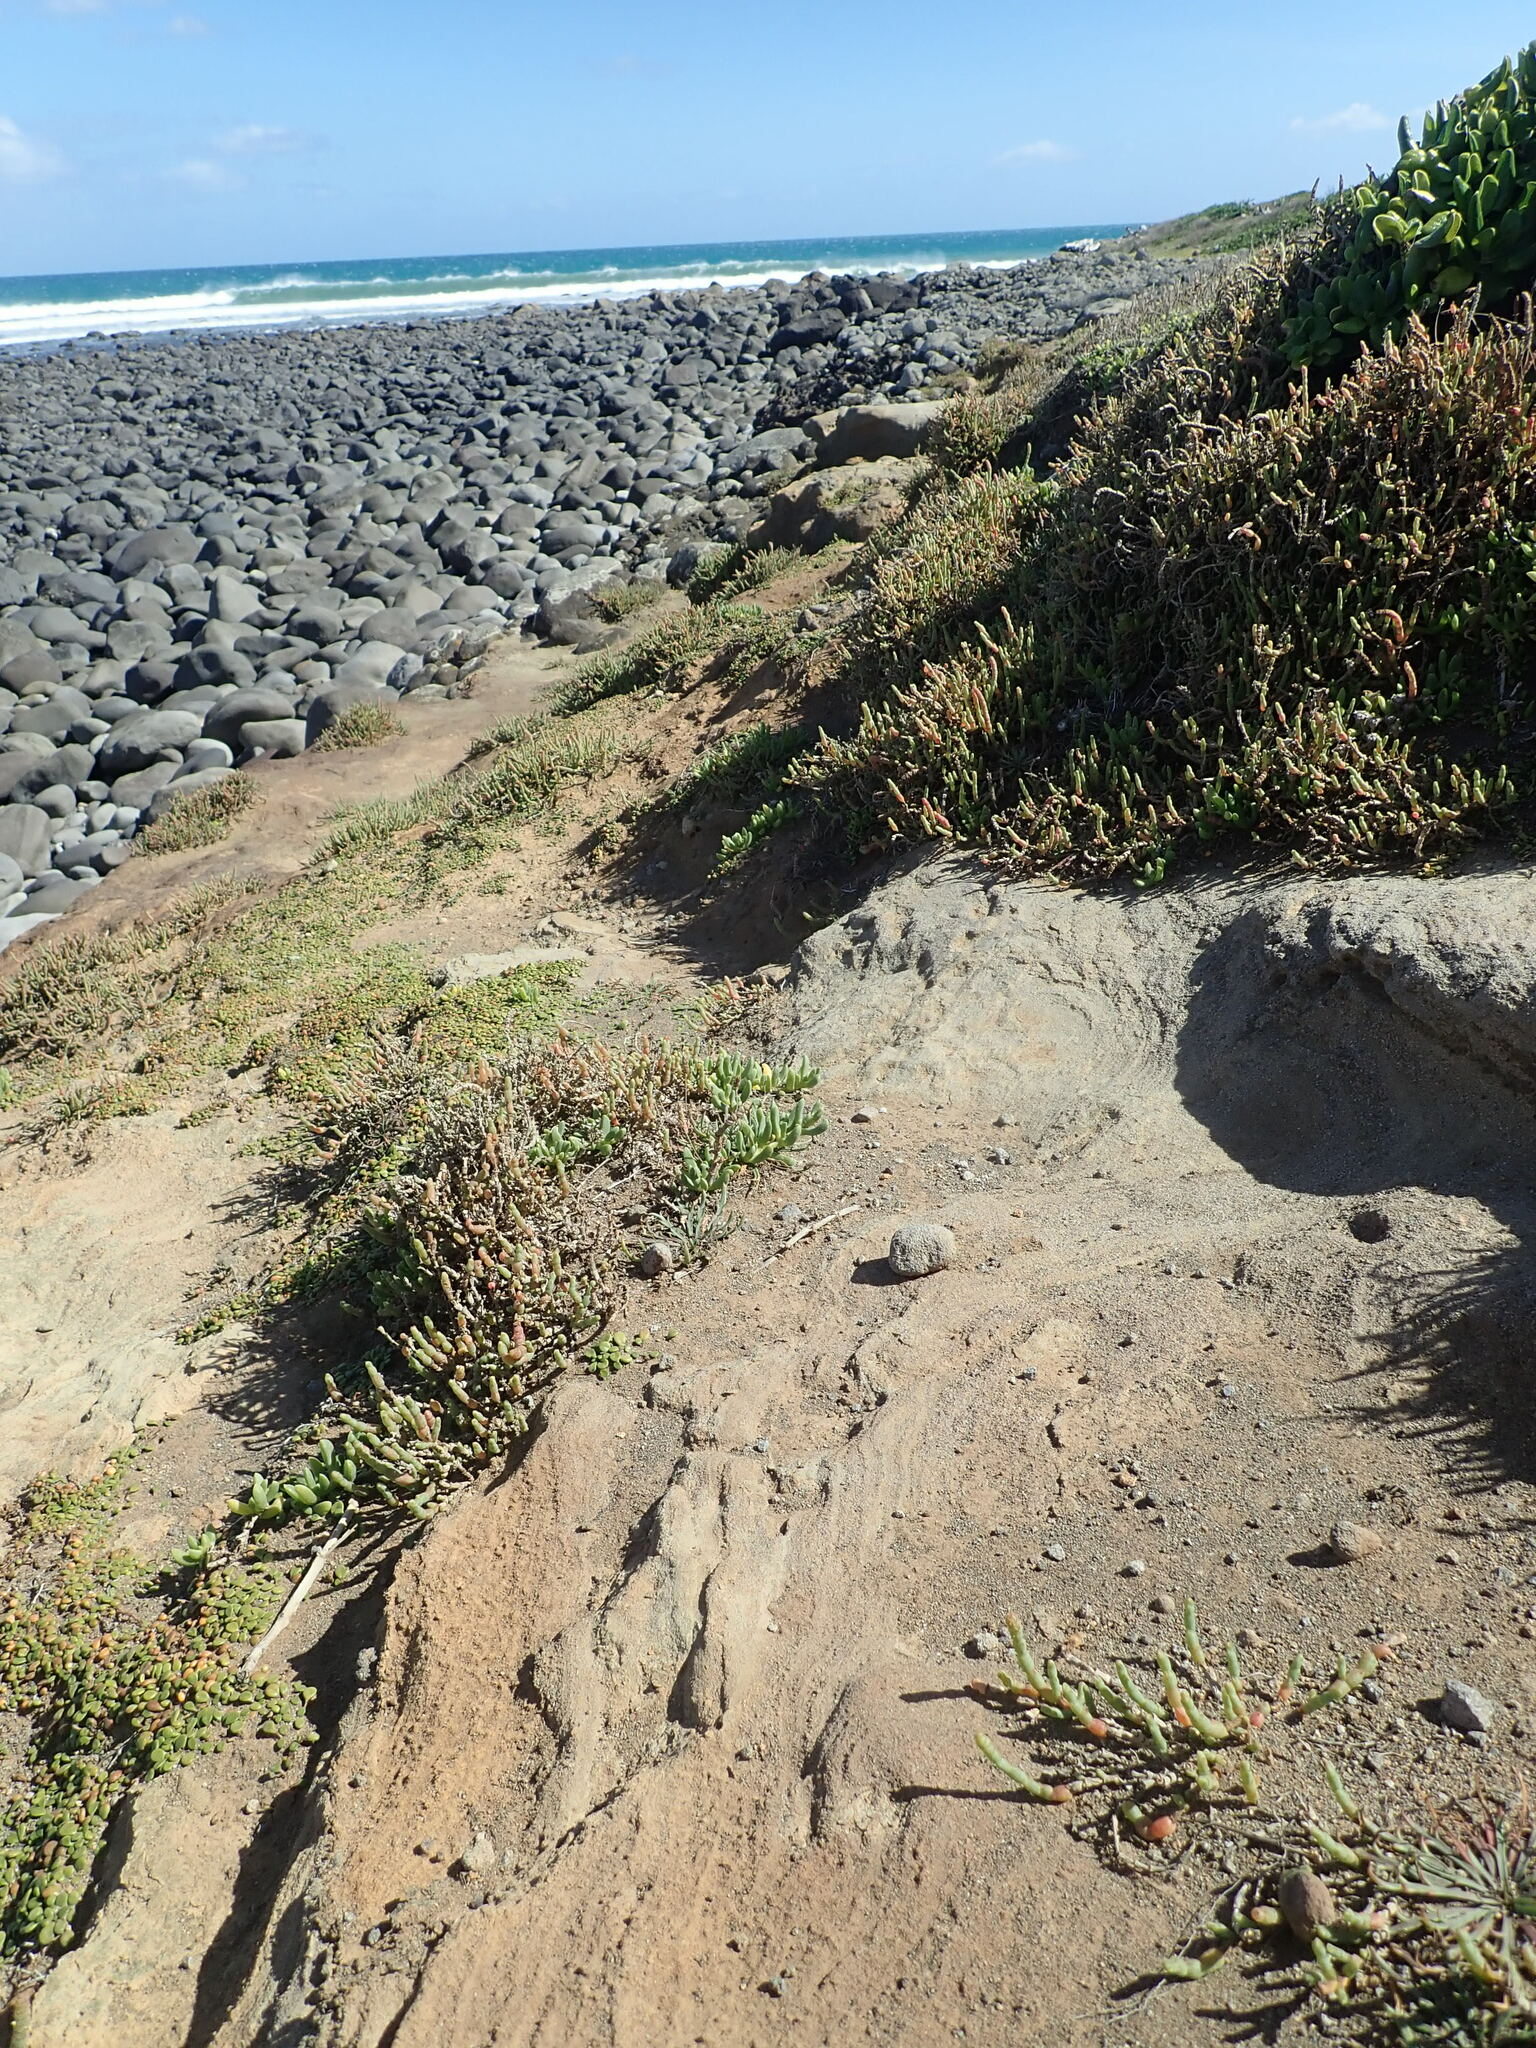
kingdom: Plantae
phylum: Tracheophyta
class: Magnoliopsida
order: Caryophyllales
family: Amaranthaceae
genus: Salicornia
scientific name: Salicornia quinqueflora
